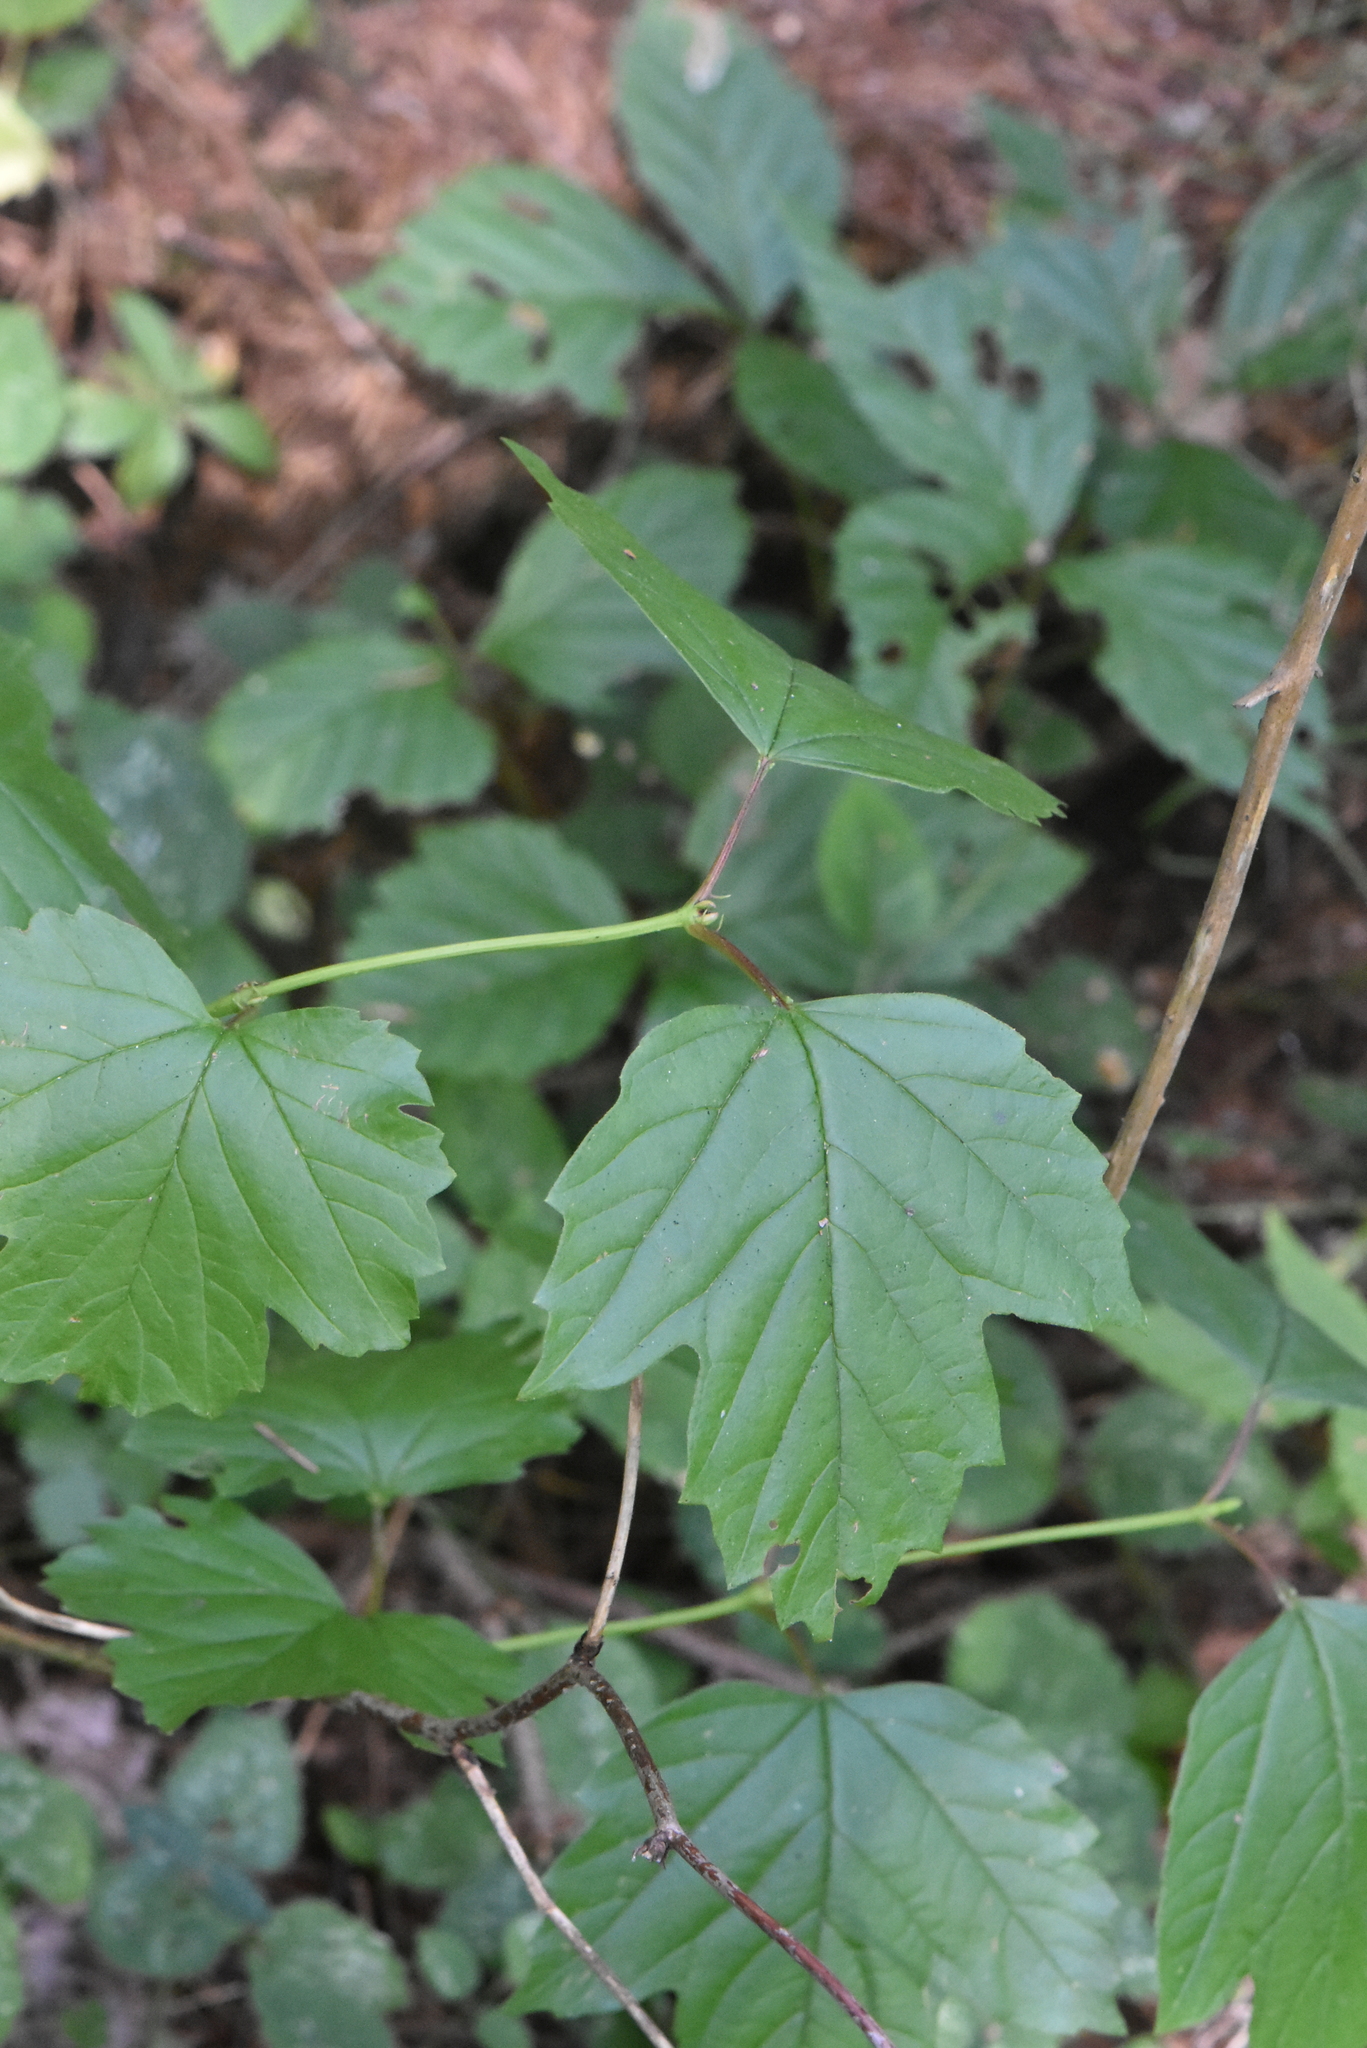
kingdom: Plantae
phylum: Tracheophyta
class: Magnoliopsida
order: Dipsacales
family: Viburnaceae
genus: Viburnum
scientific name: Viburnum opulus
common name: Guelder-rose
